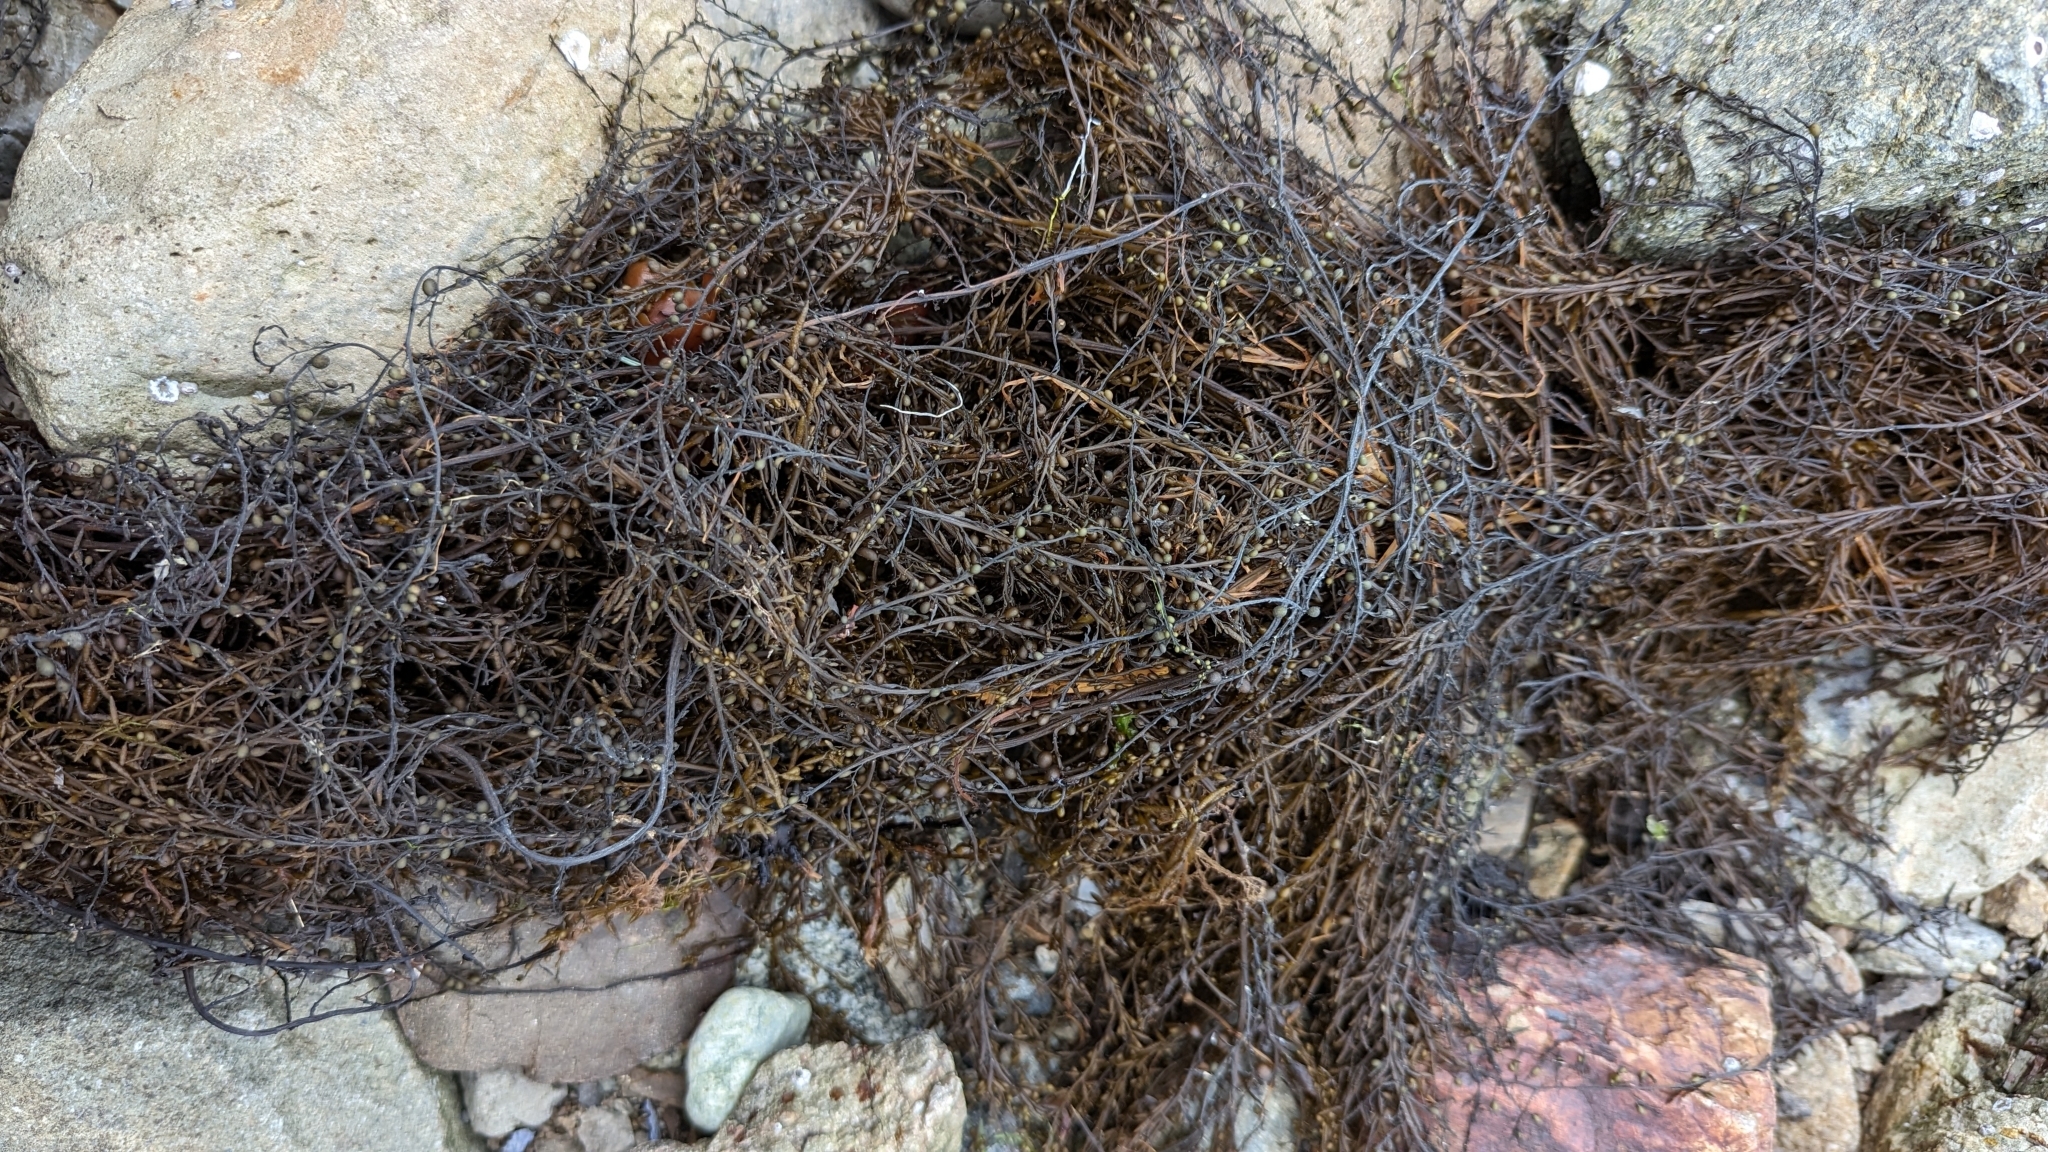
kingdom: Chromista
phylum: Ochrophyta
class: Phaeophyceae
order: Fucales
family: Sargassaceae
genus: Sargassum
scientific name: Sargassum muticum
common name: Japweed
